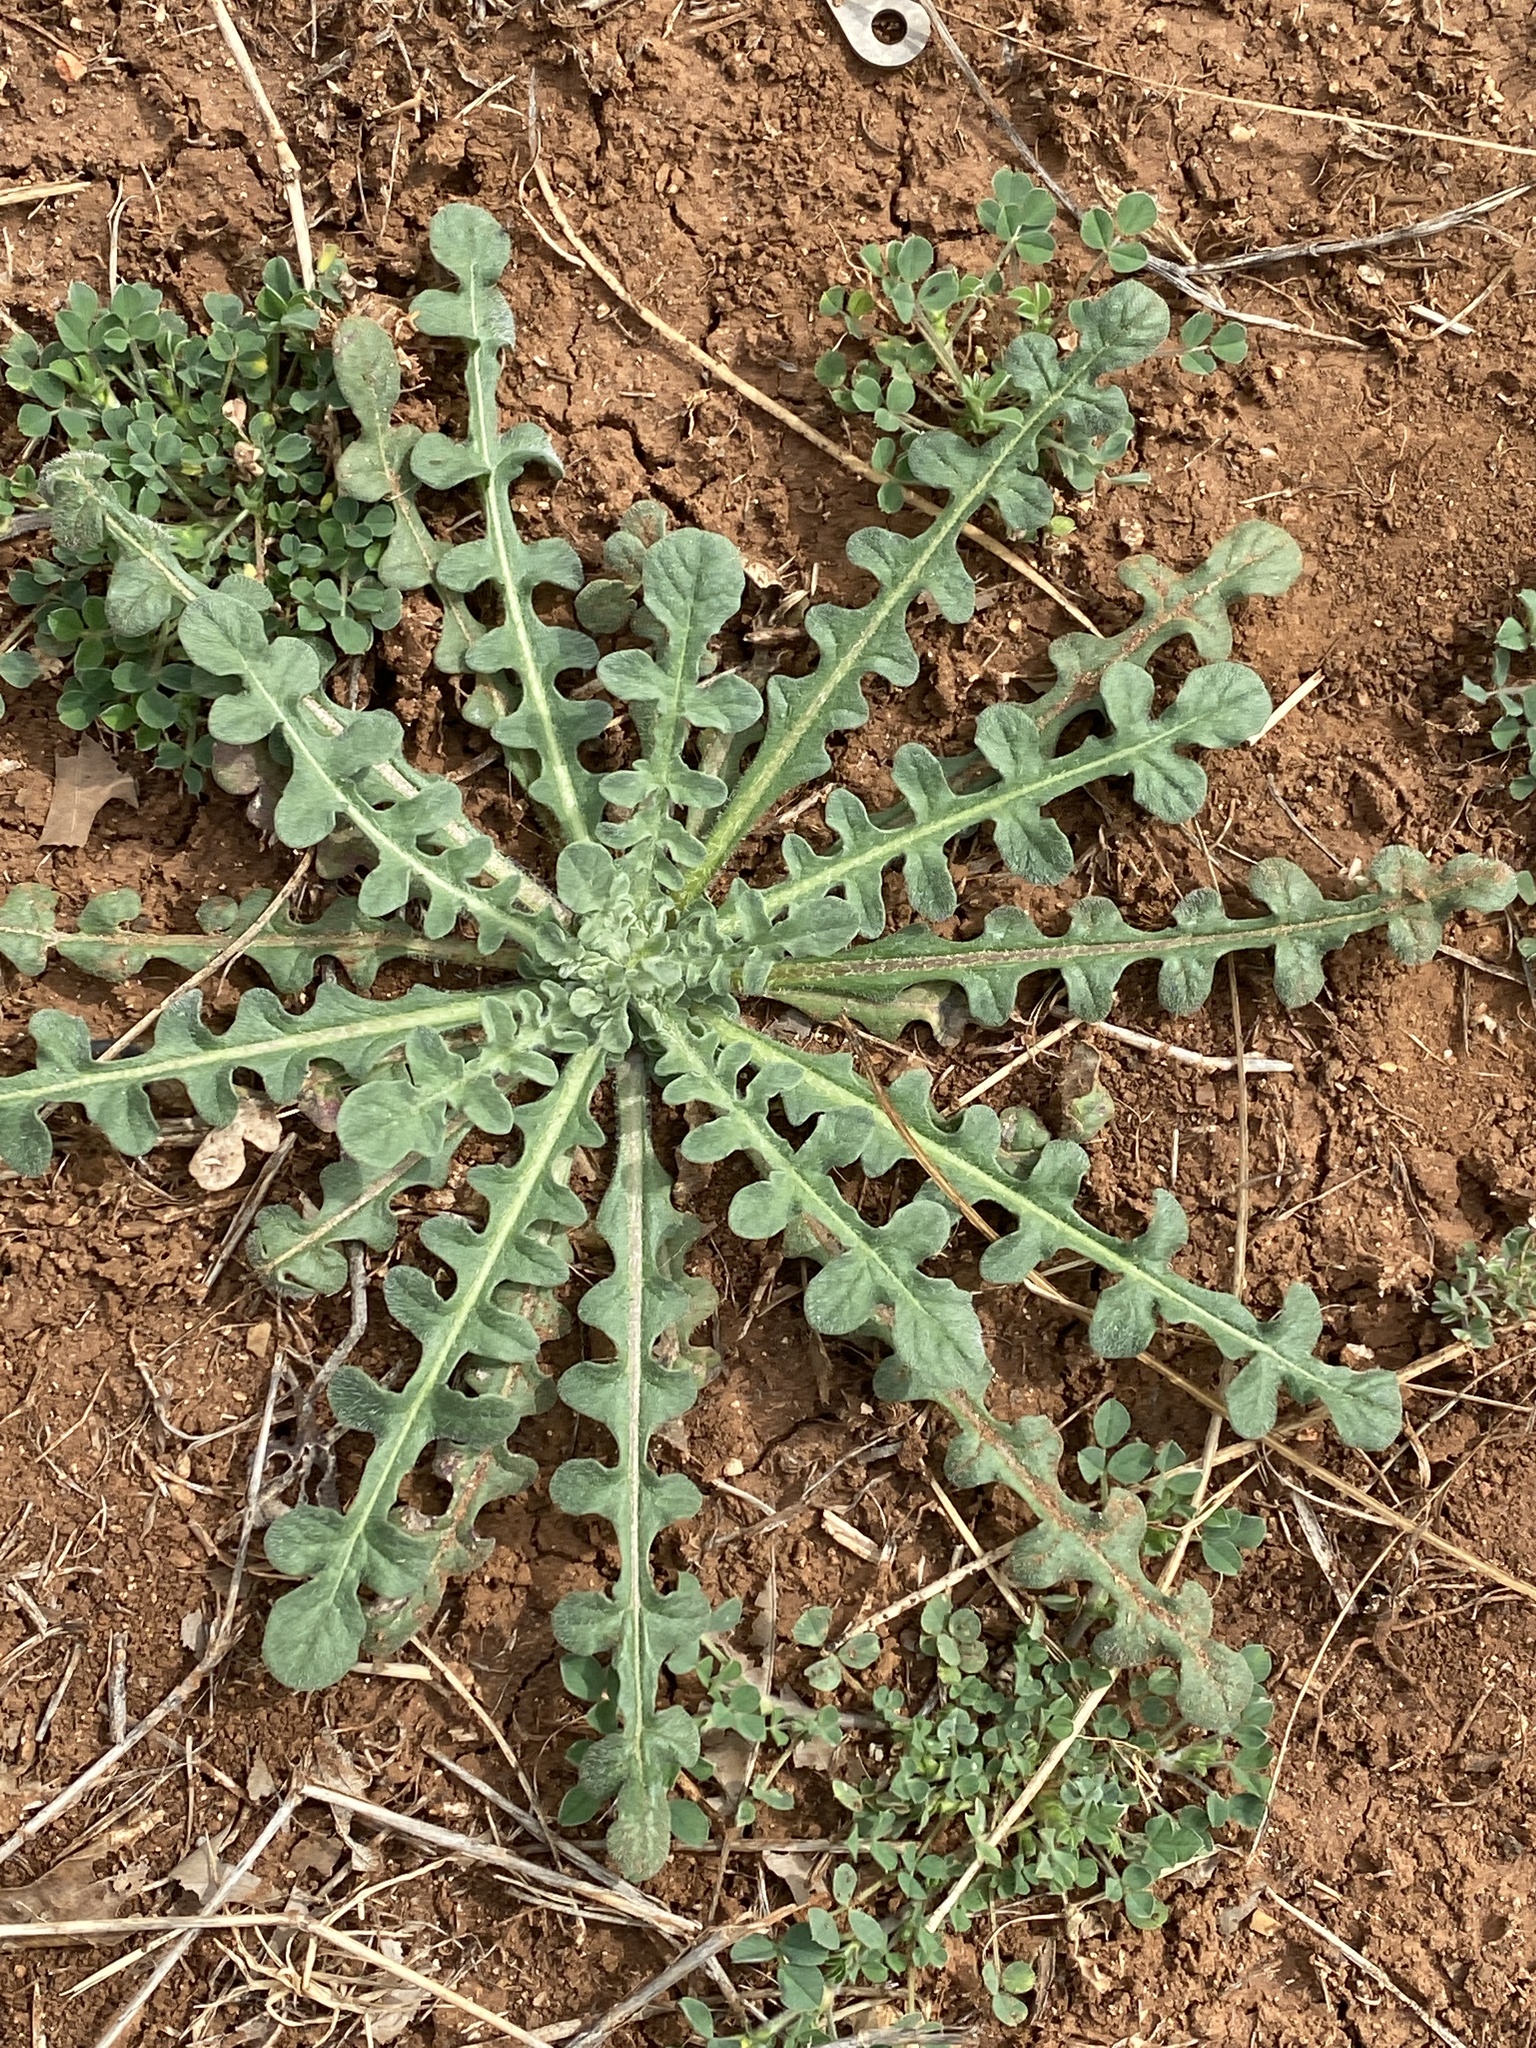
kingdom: Plantae
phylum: Tracheophyta
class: Magnoliopsida
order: Asterales
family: Asteraceae
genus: Centaurea
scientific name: Centaurea melitensis
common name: Maltese star-thistle
